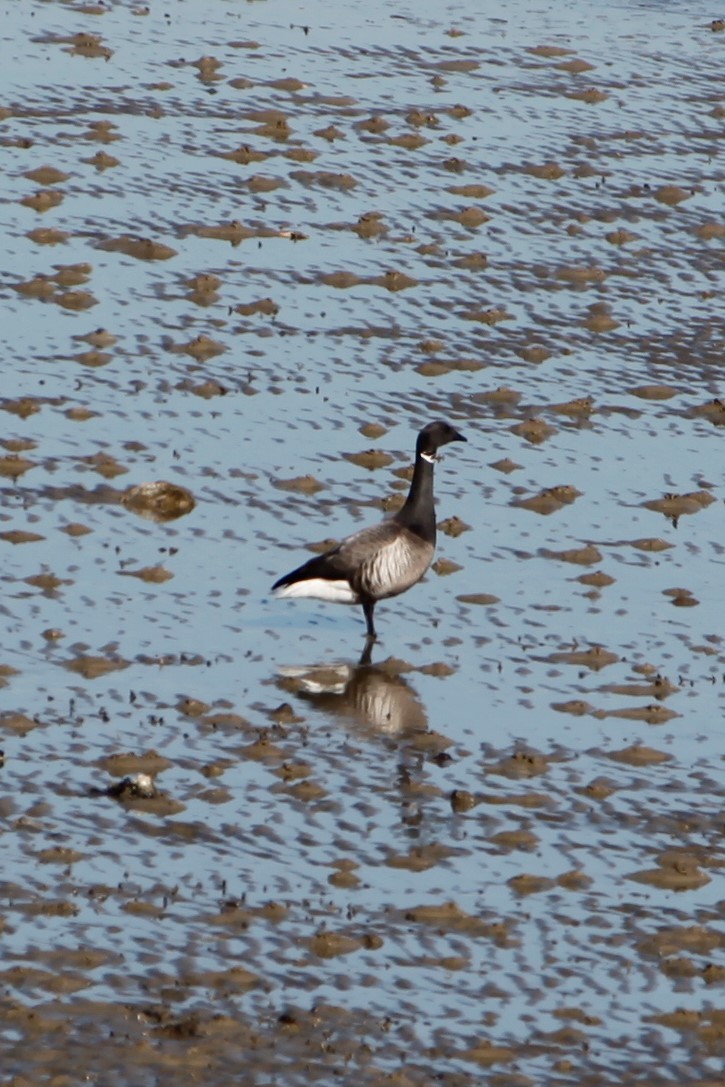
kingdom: Animalia
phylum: Chordata
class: Aves
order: Anseriformes
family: Anatidae
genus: Branta
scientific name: Branta bernicla
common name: Brant goose
